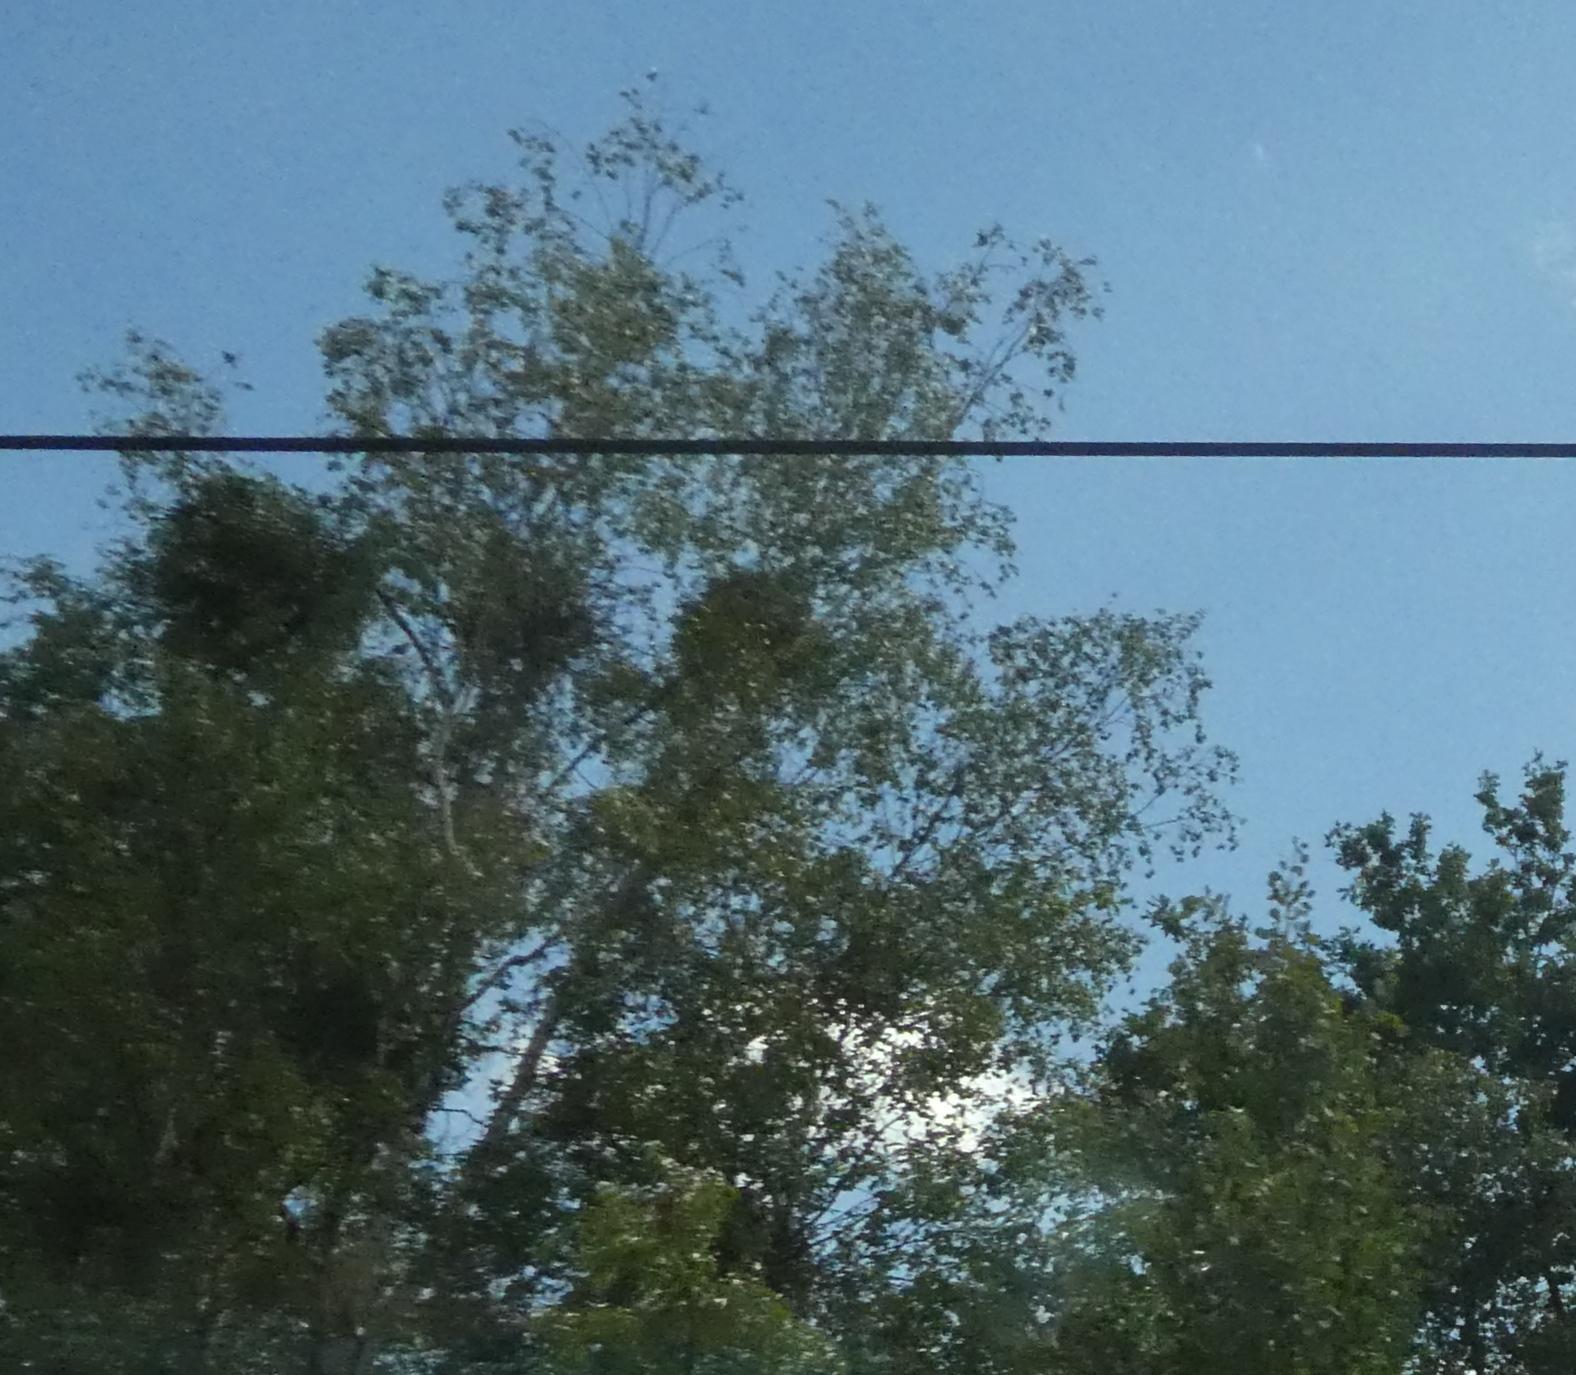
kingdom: Plantae
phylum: Tracheophyta
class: Magnoliopsida
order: Santalales
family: Viscaceae
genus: Viscum
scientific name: Viscum album
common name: Mistletoe
